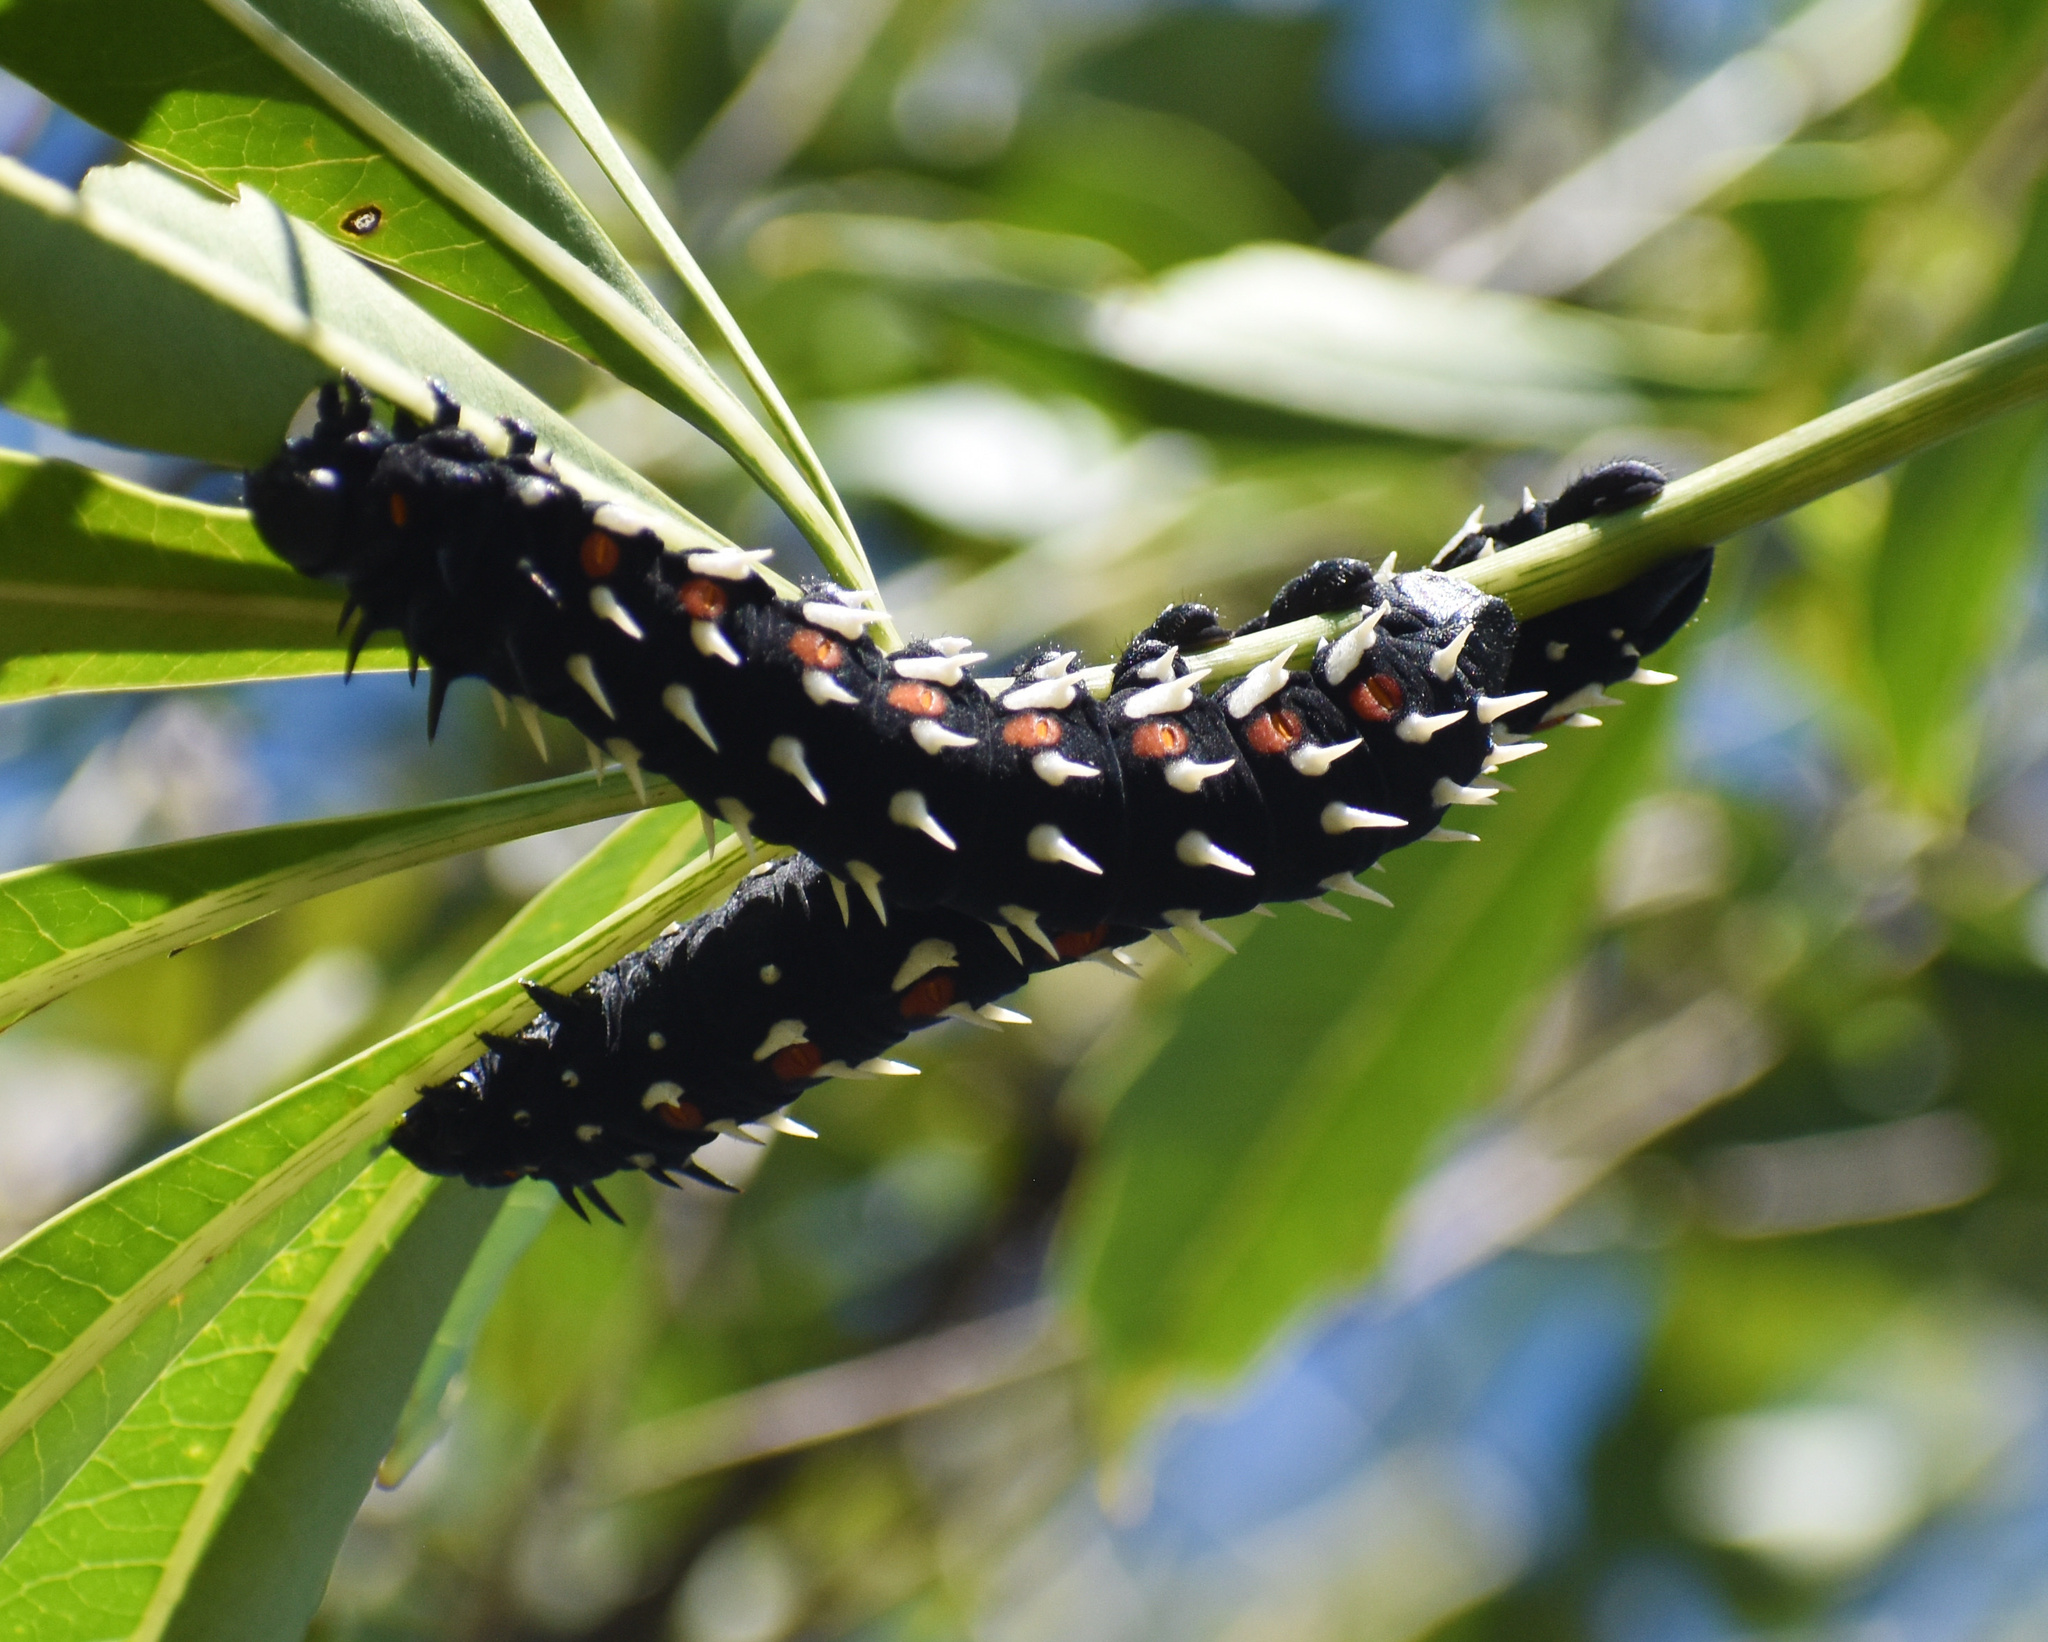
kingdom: Animalia
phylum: Arthropoda
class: Insecta
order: Lepidoptera
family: Saturniidae
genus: Bunaea
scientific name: Bunaea alcinoe
